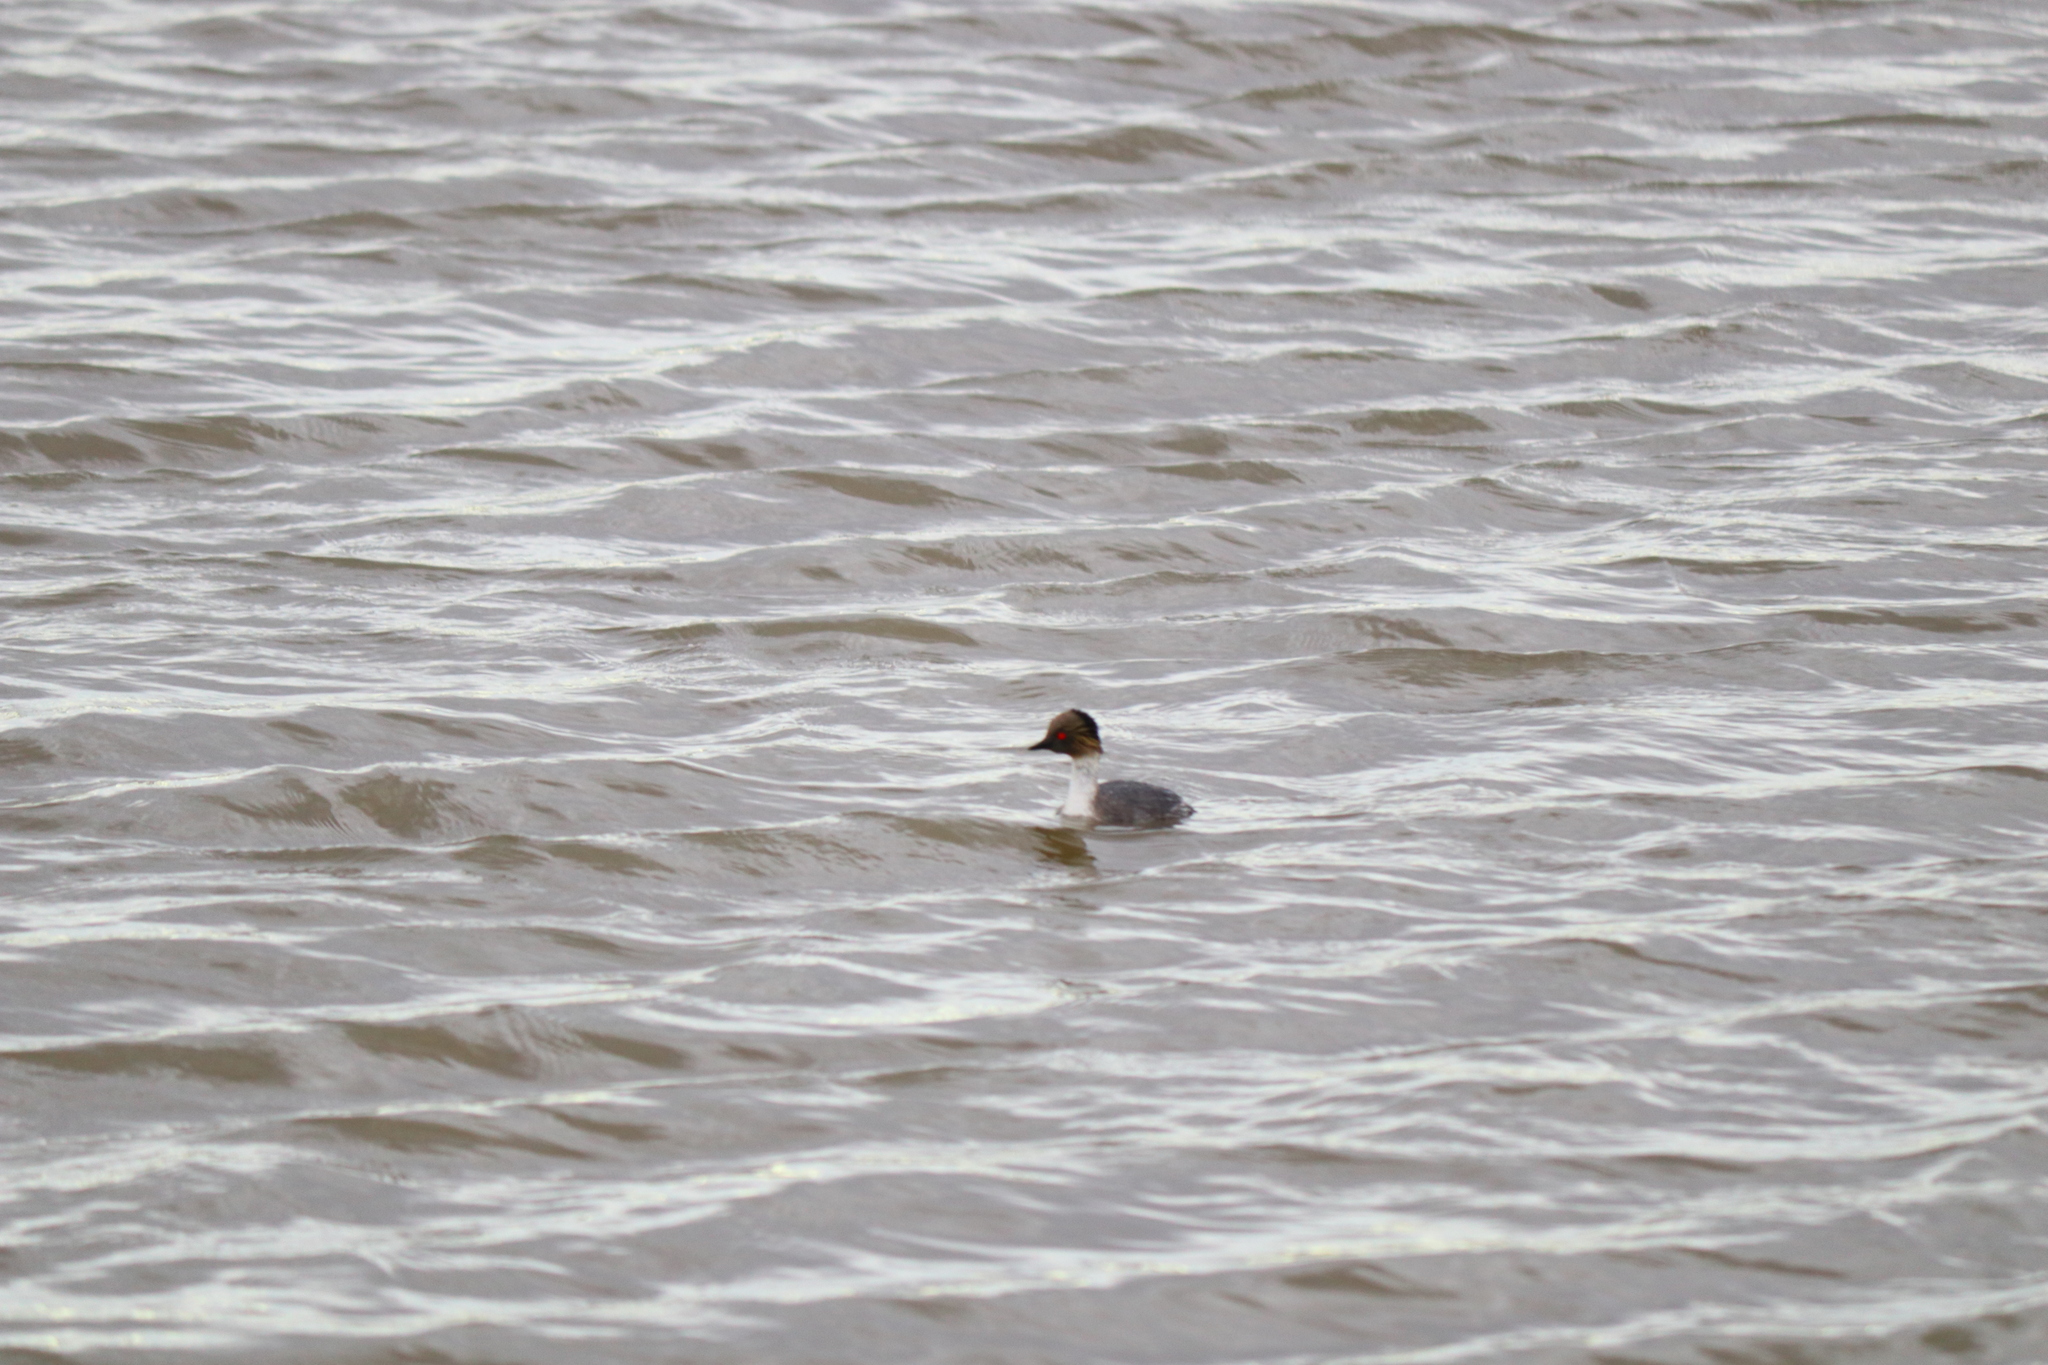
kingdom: Animalia
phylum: Chordata
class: Aves
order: Podicipediformes
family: Podicipedidae
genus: Podiceps
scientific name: Podiceps occipitalis
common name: Silvery grebe
